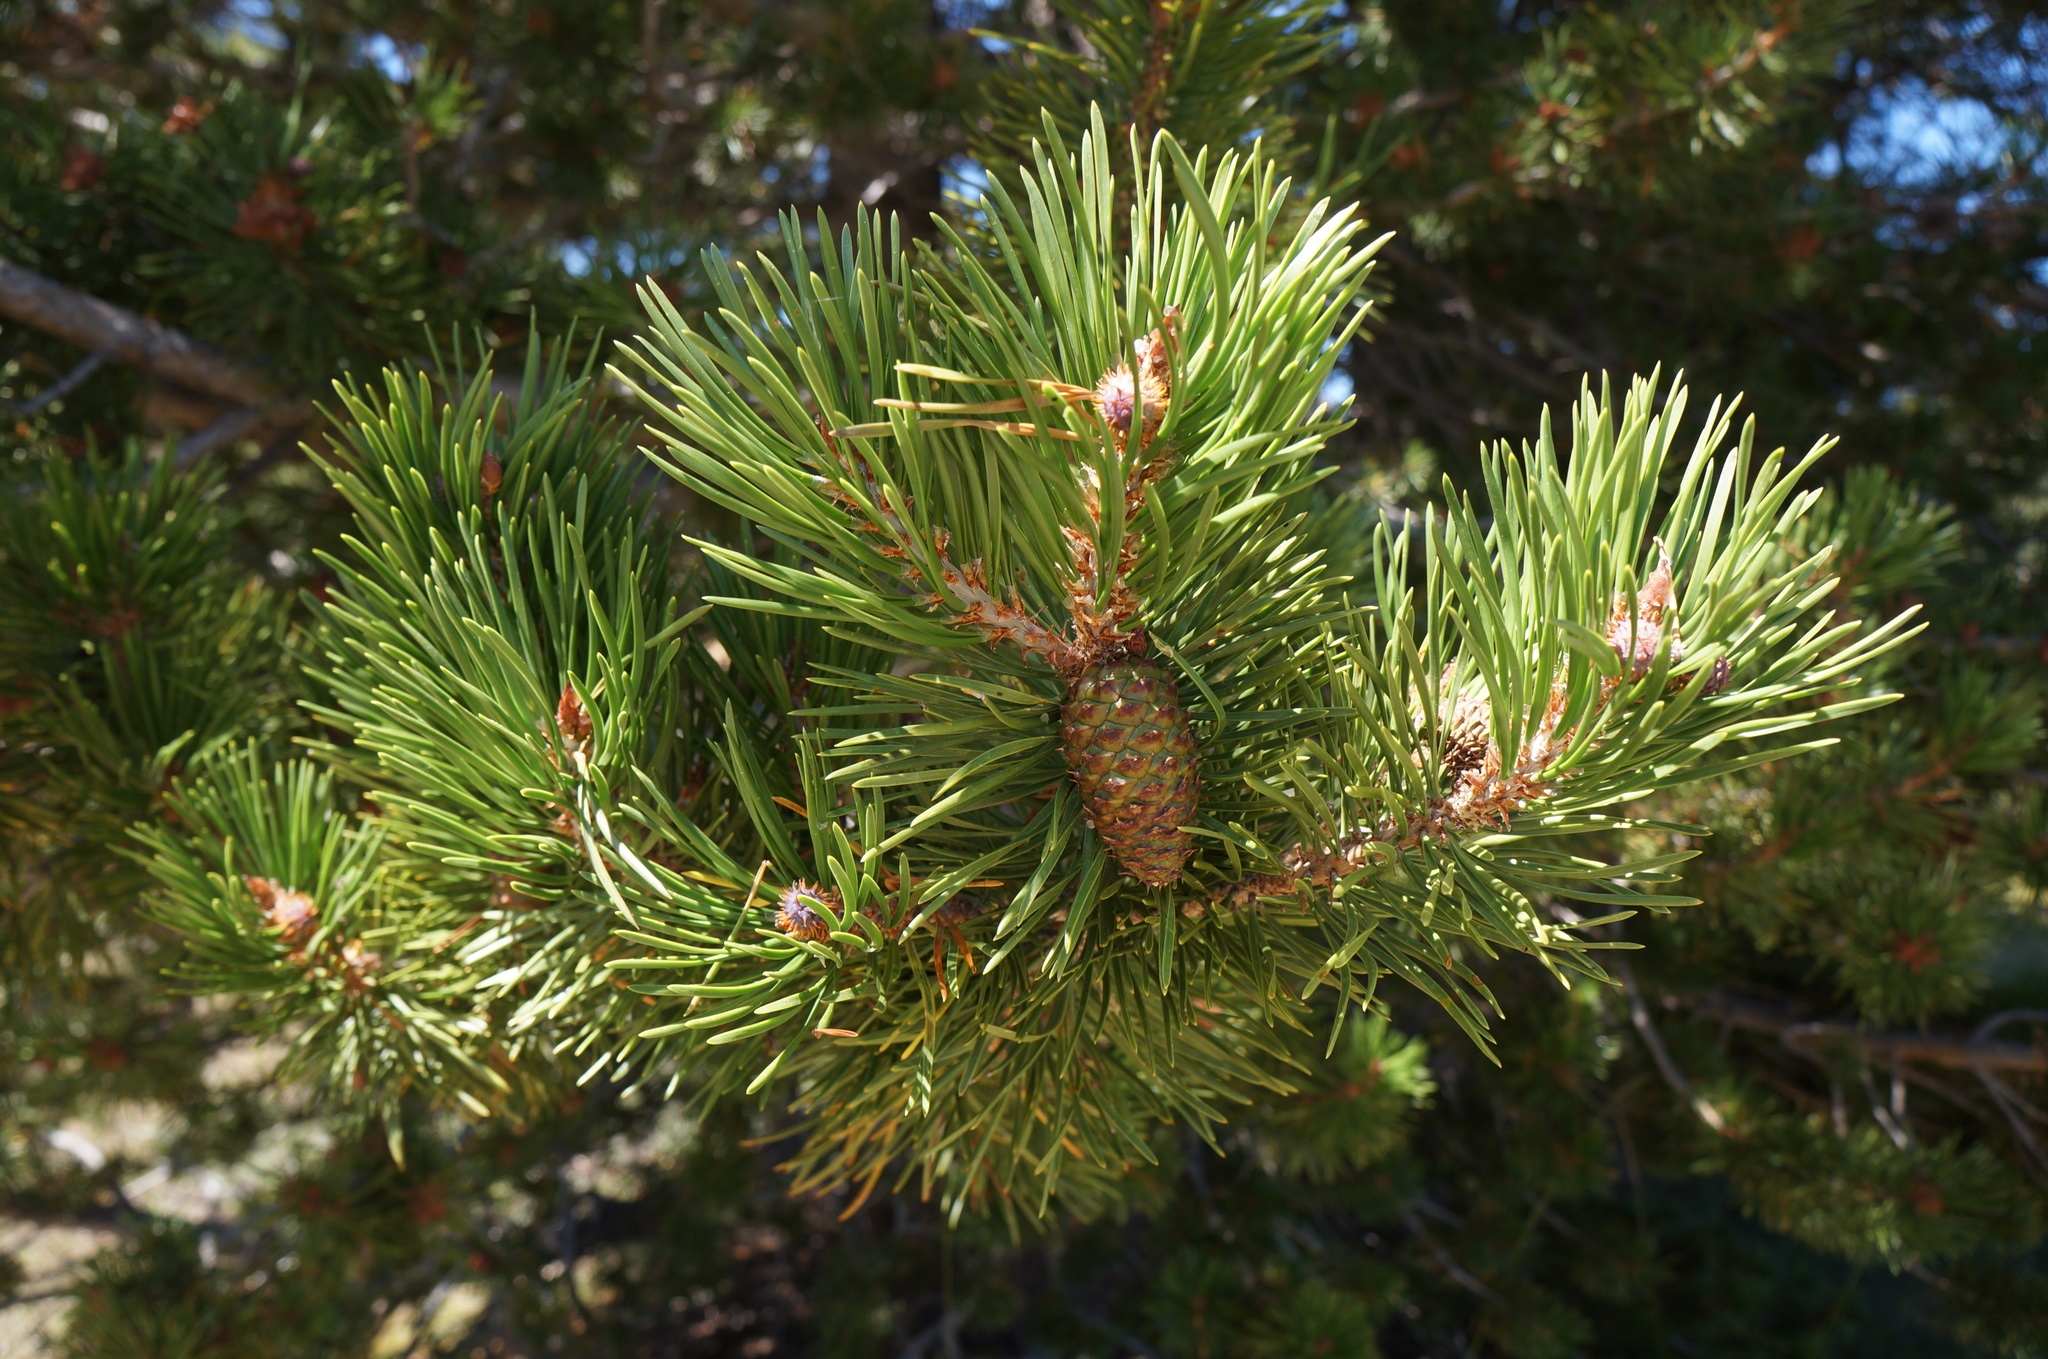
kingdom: Plantae
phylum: Tracheophyta
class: Pinopsida
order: Pinales
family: Pinaceae
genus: Pinus
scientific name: Pinus contorta
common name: Lodgepole pine
